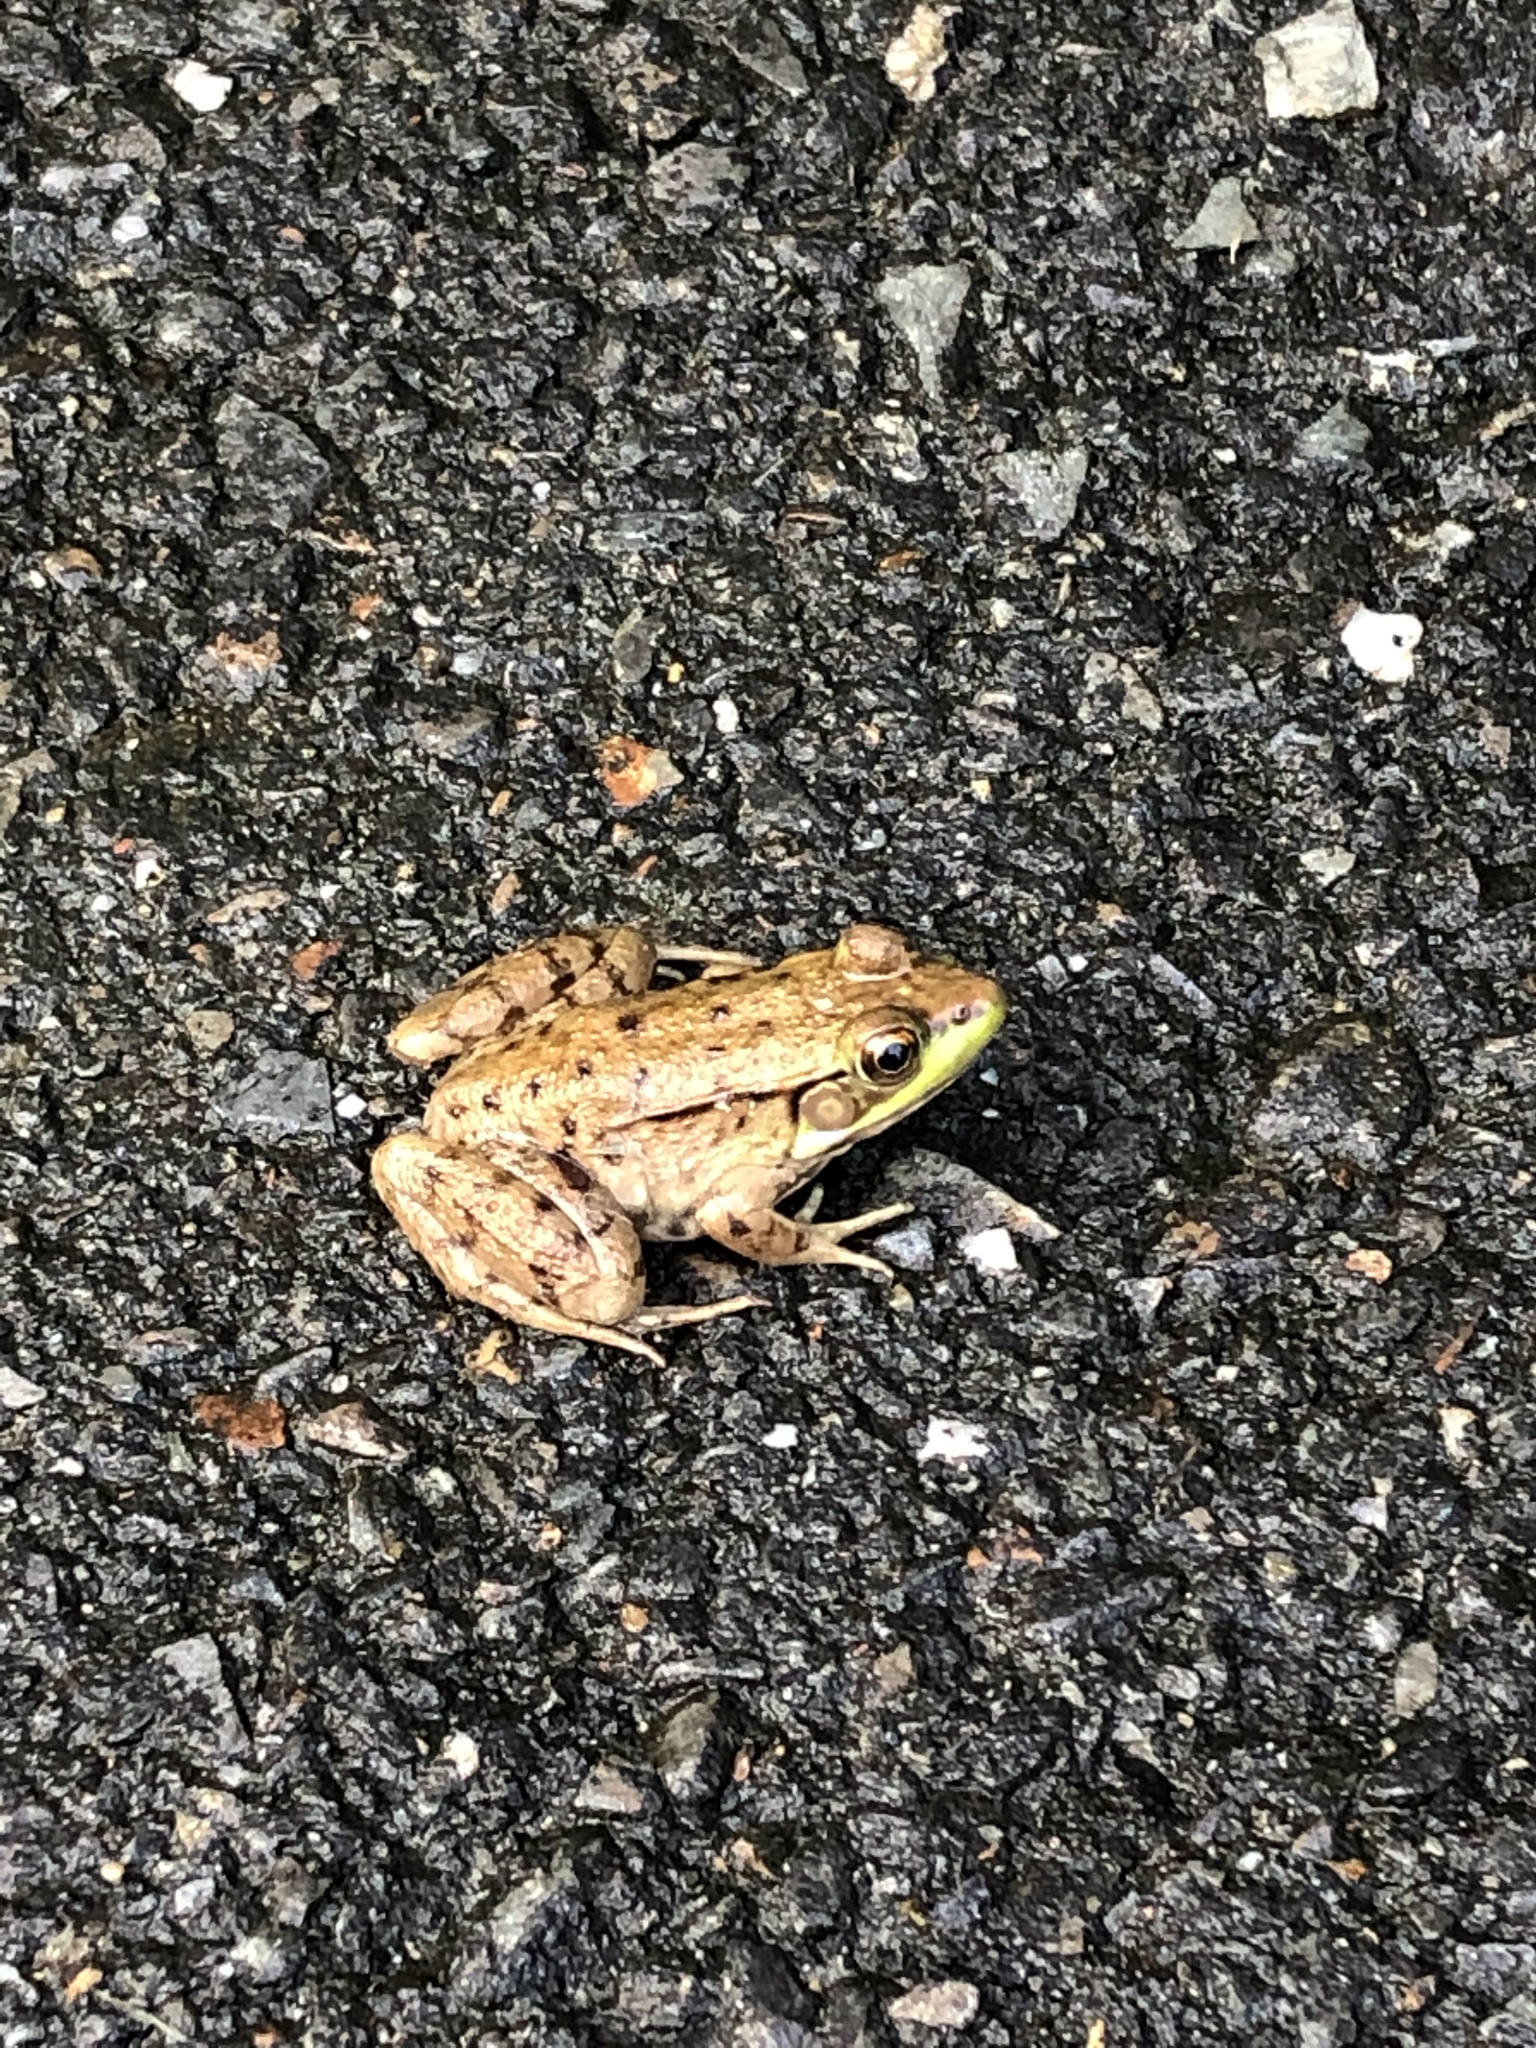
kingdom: Animalia
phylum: Chordata
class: Amphibia
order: Anura
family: Ranidae
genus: Lithobates
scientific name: Lithobates clamitans
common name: Green frog
